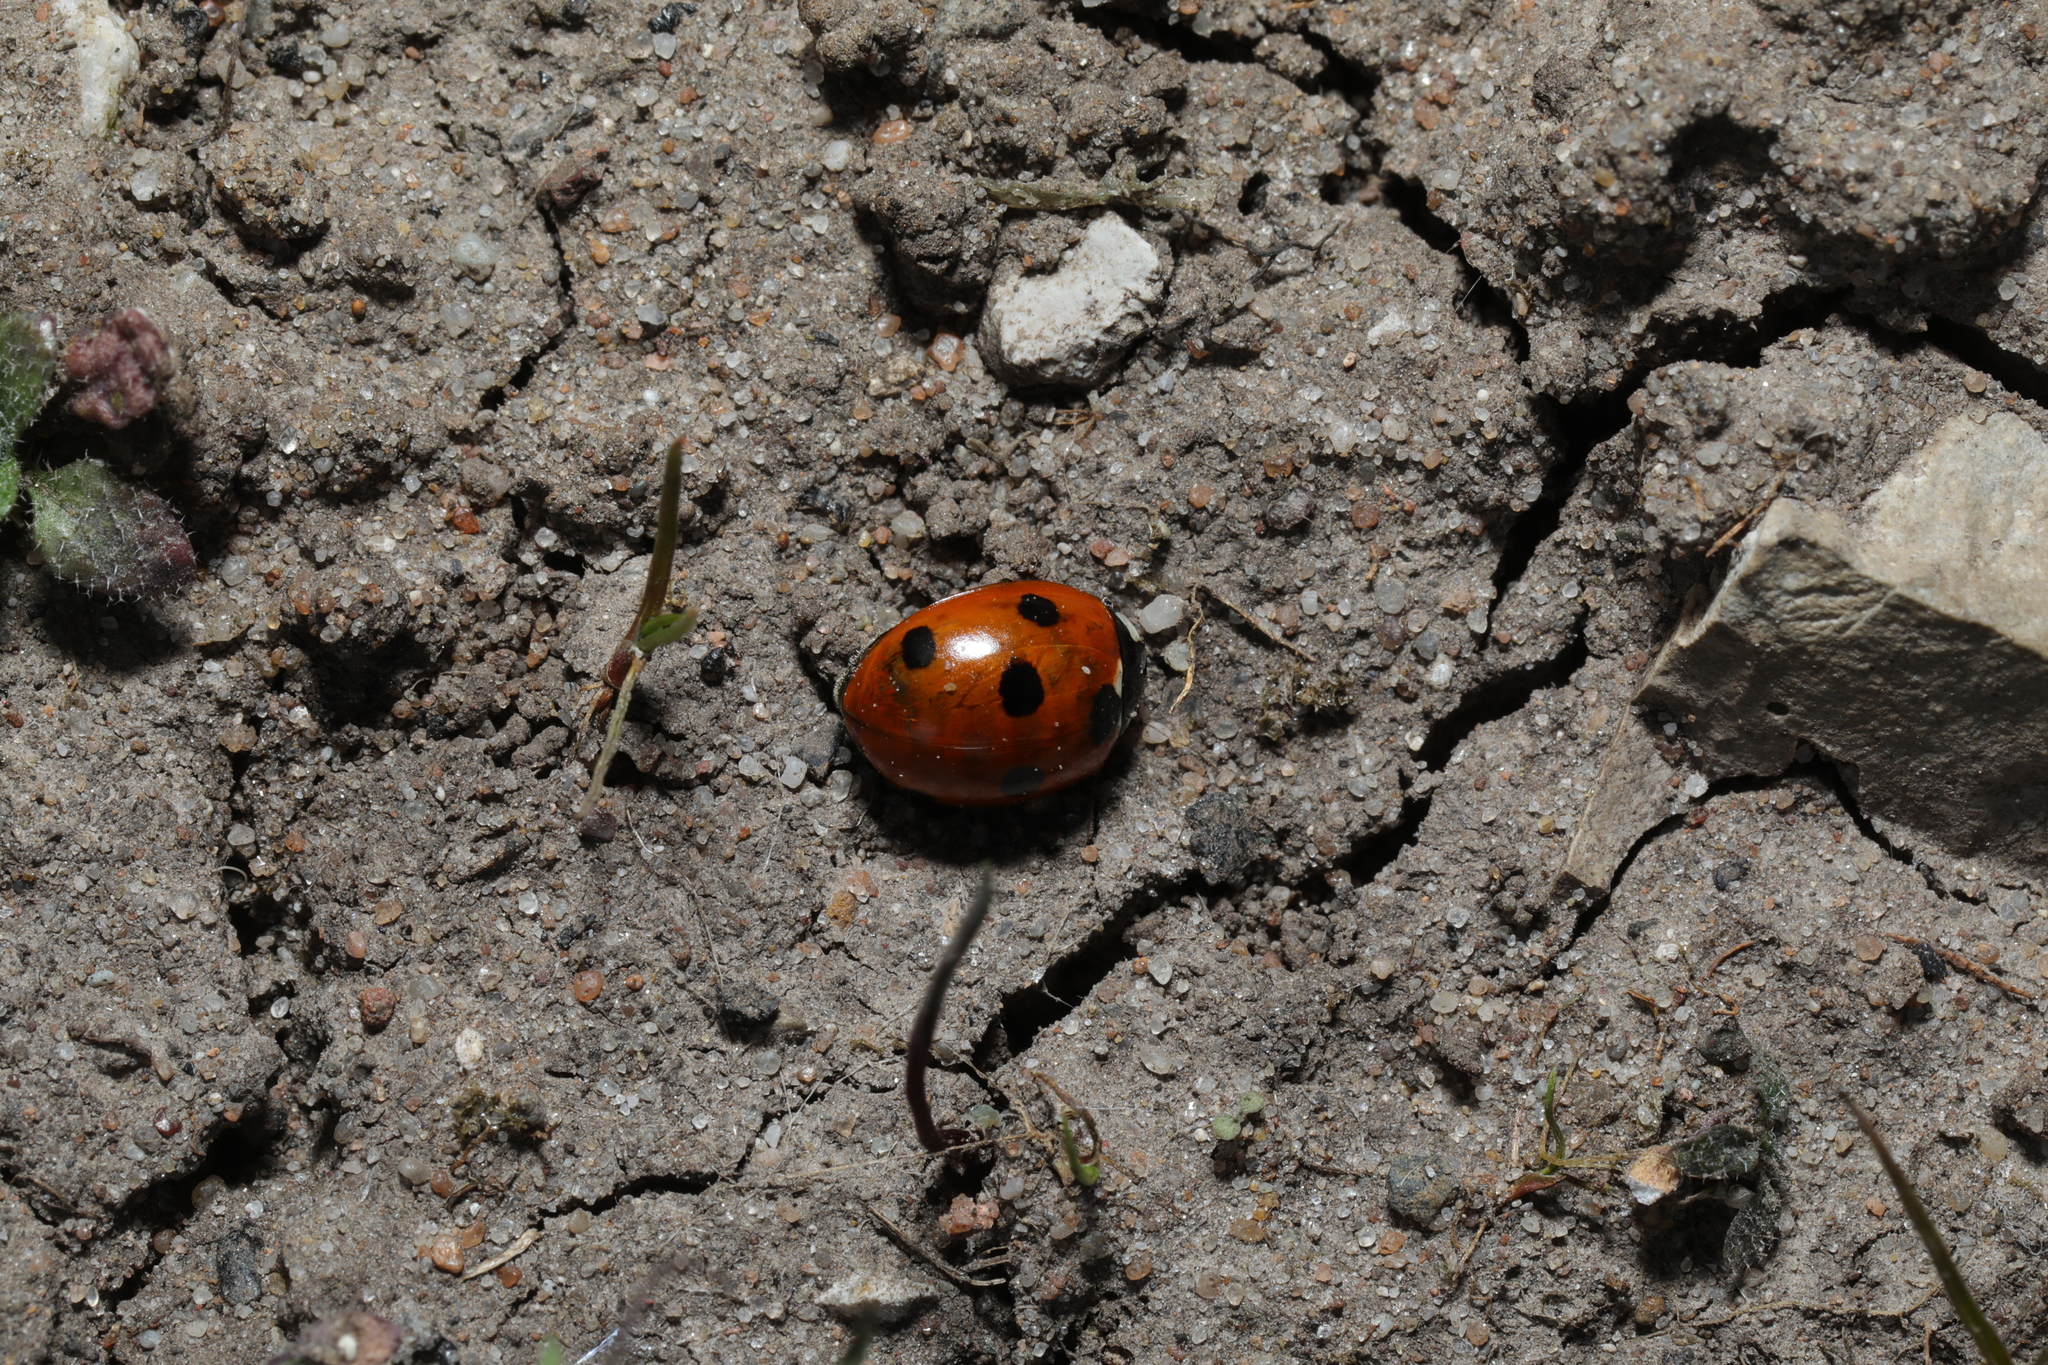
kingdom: Animalia
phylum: Arthropoda
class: Insecta
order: Coleoptera
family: Coccinellidae
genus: Coccinella
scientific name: Coccinella septempunctata
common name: Sevenspotted lady beetle
